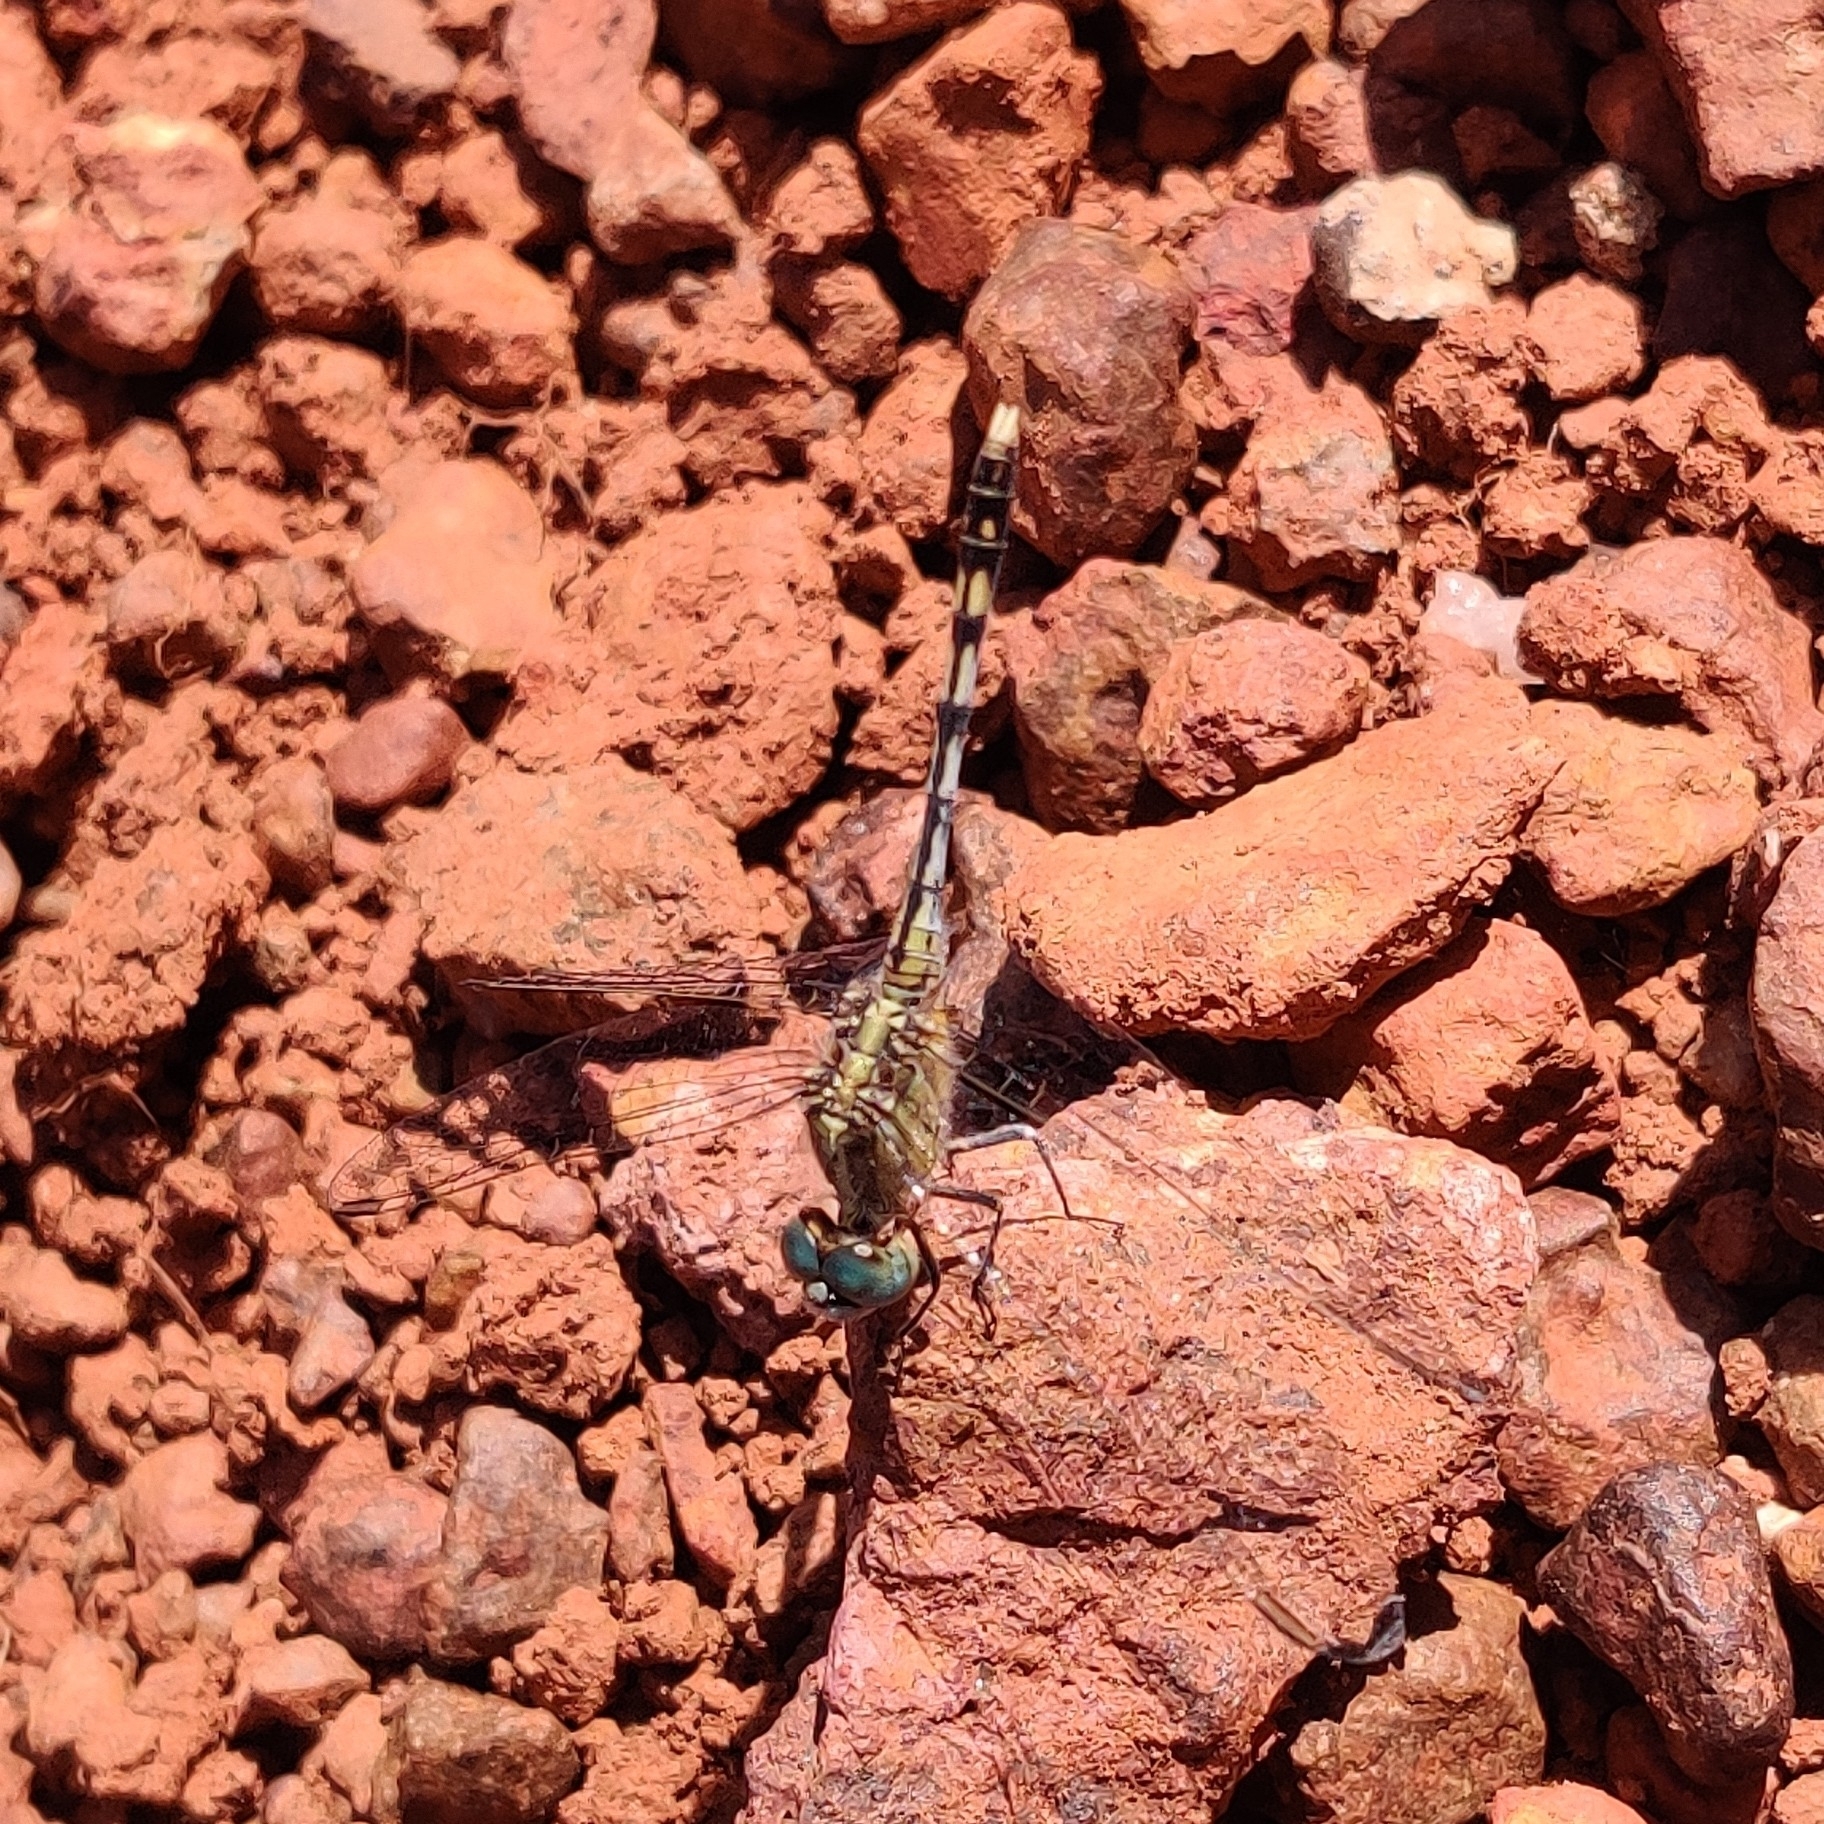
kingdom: Animalia
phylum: Arthropoda
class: Insecta
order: Odonata
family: Libellulidae
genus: Diplacodes
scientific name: Diplacodes trivialis
